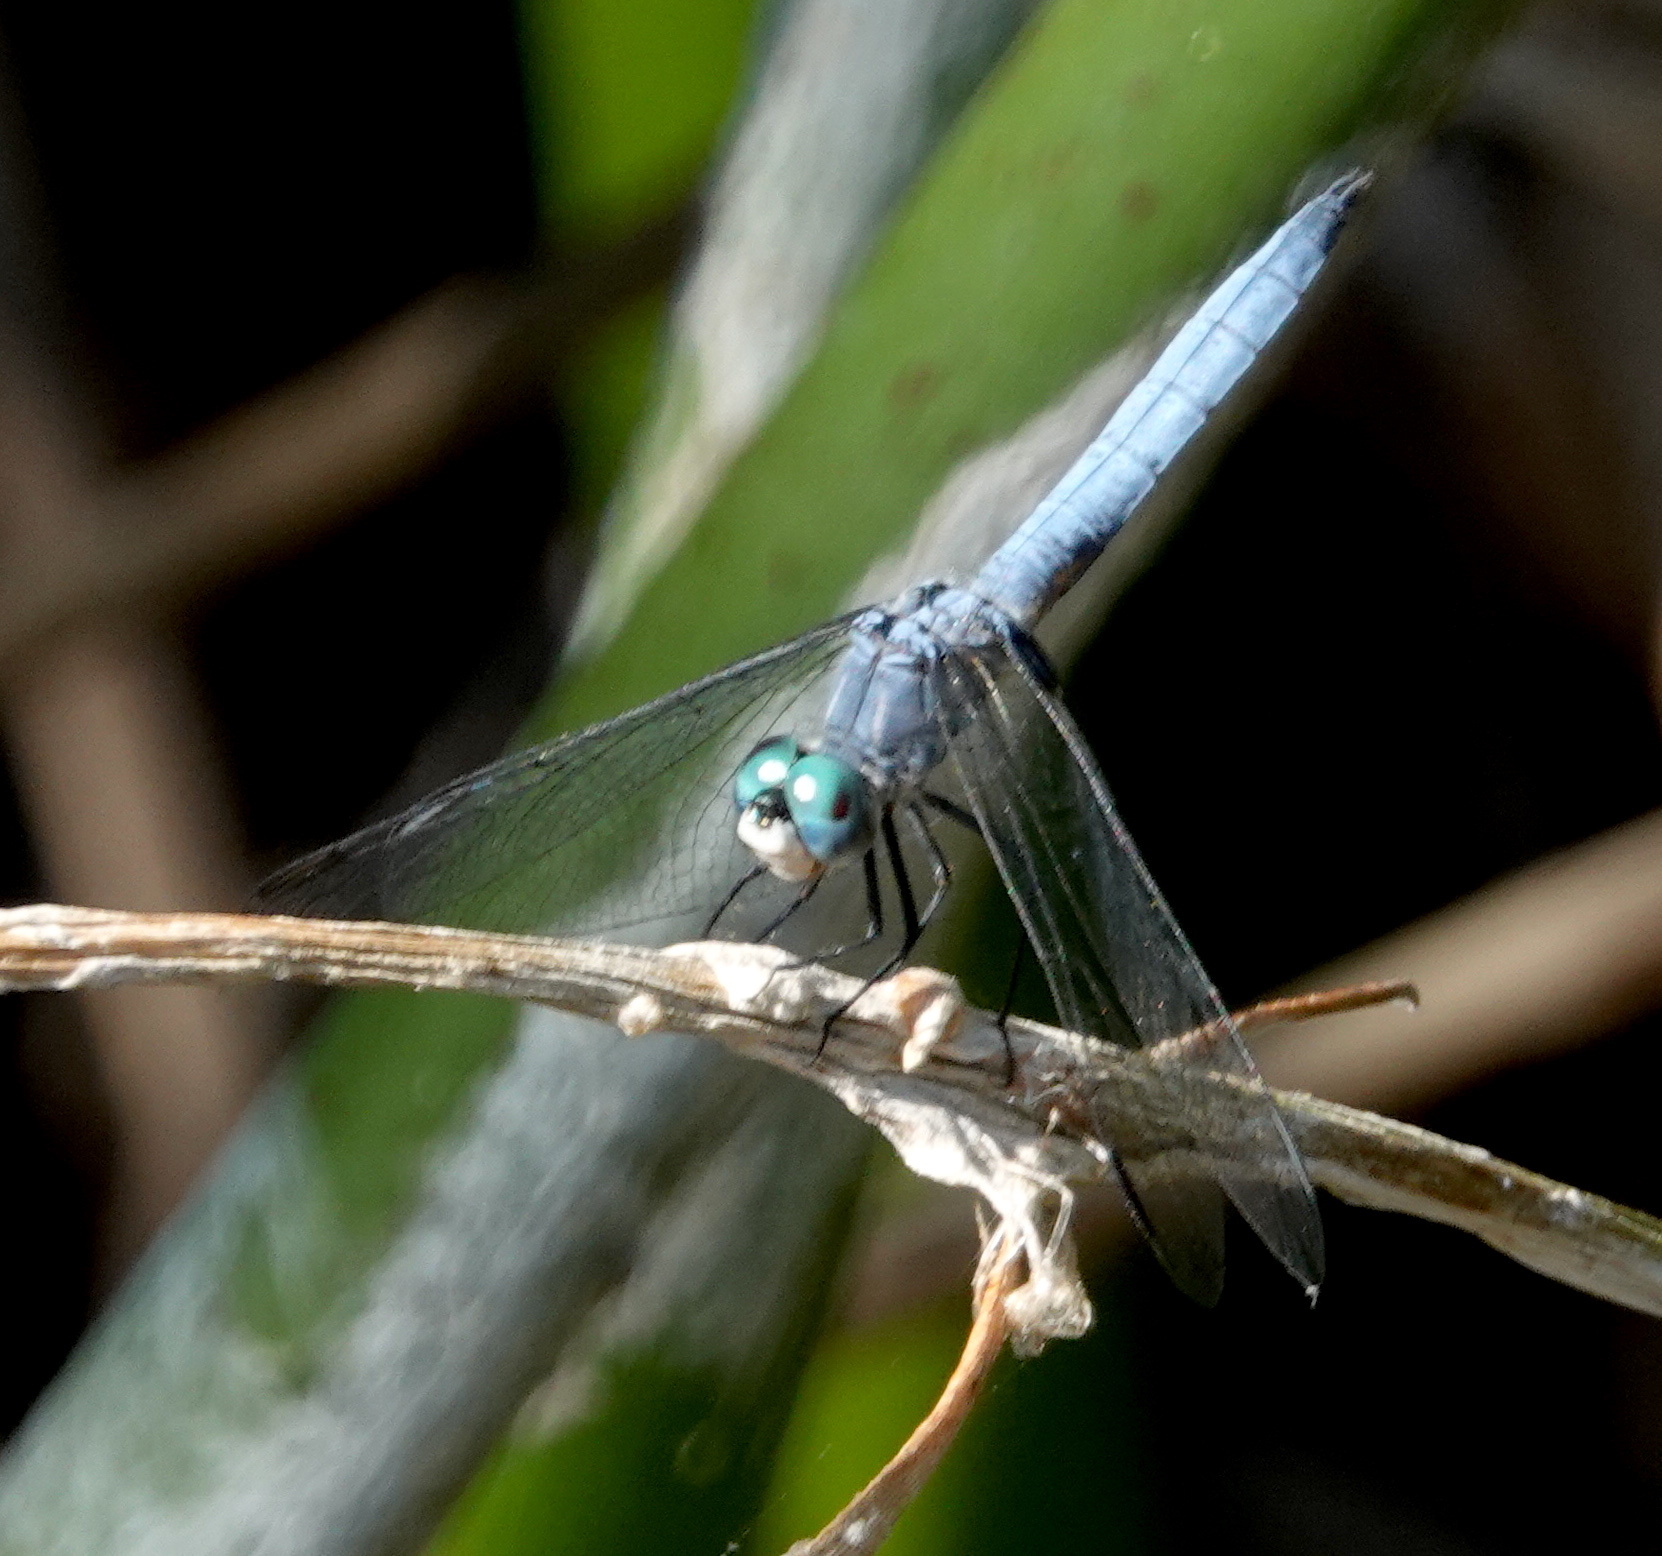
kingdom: Animalia
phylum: Arthropoda
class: Insecta
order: Odonata
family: Libellulidae
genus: Pachydiplax
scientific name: Pachydiplax longipennis
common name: Blue dasher
